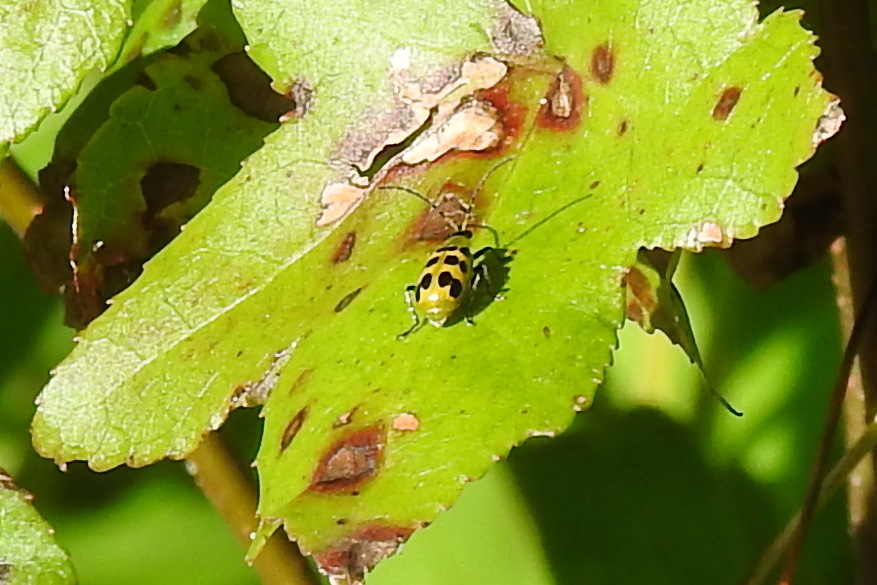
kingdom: Animalia
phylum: Arthropoda
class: Insecta
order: Coleoptera
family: Chrysomelidae
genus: Diabrotica
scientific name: Diabrotica undecimpunctata
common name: Spotted cucumber beetle
